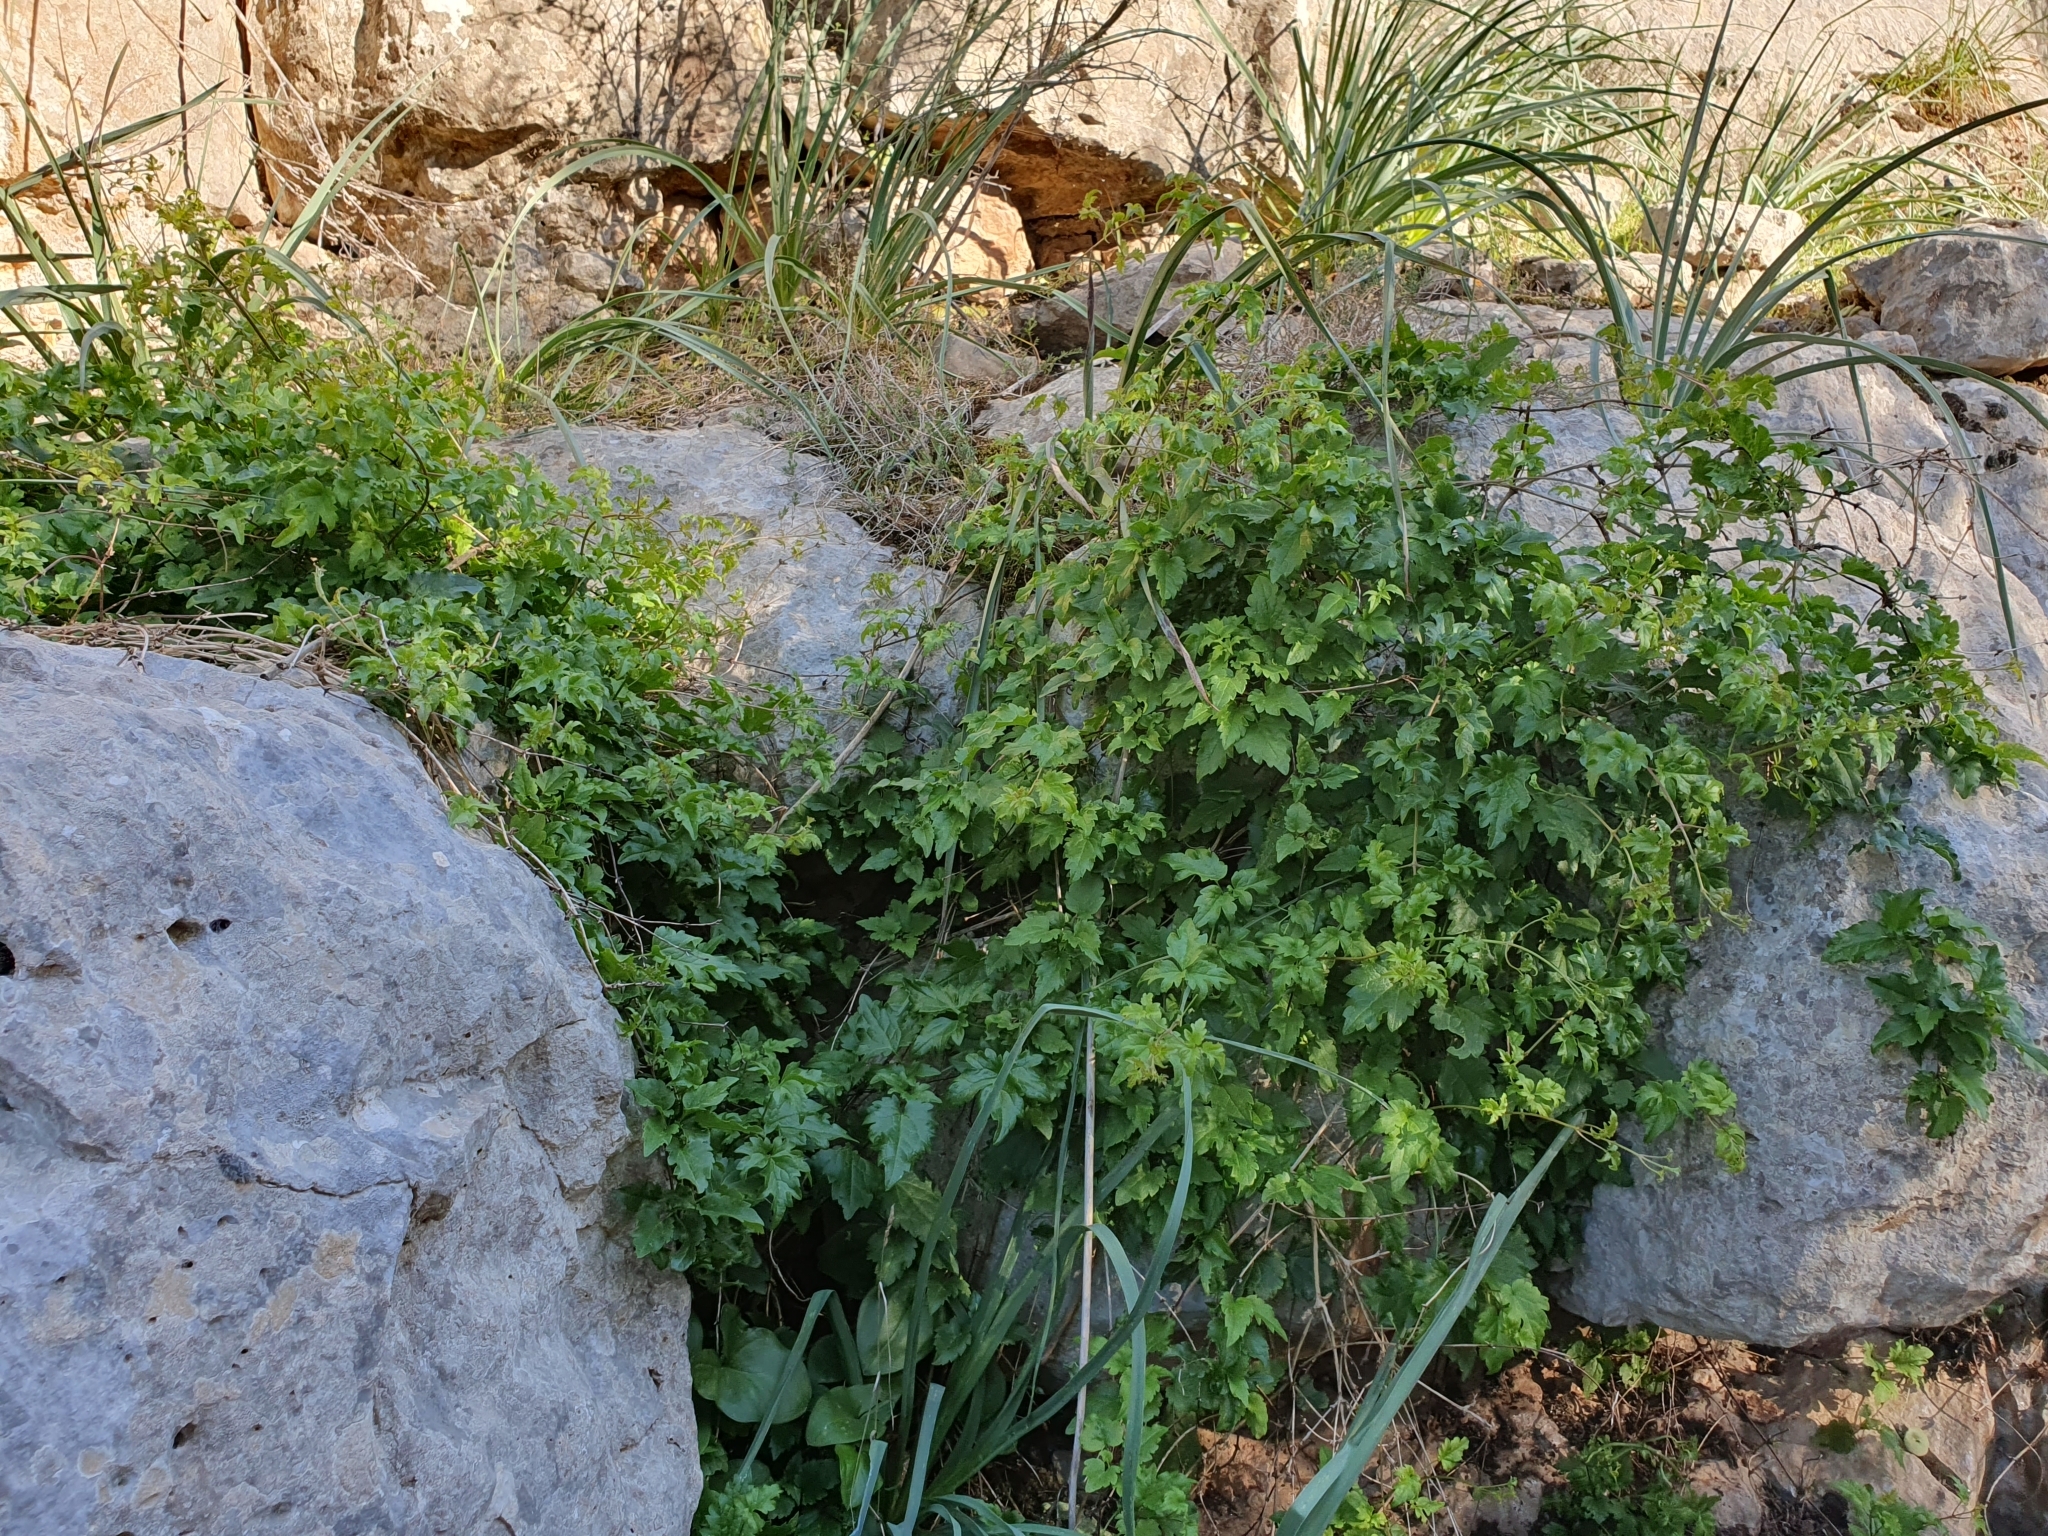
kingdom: Plantae
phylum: Tracheophyta
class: Magnoliopsida
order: Ranunculales
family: Ranunculaceae
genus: Clematis
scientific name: Clematis cirrhosa
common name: Early virgin's-bower
